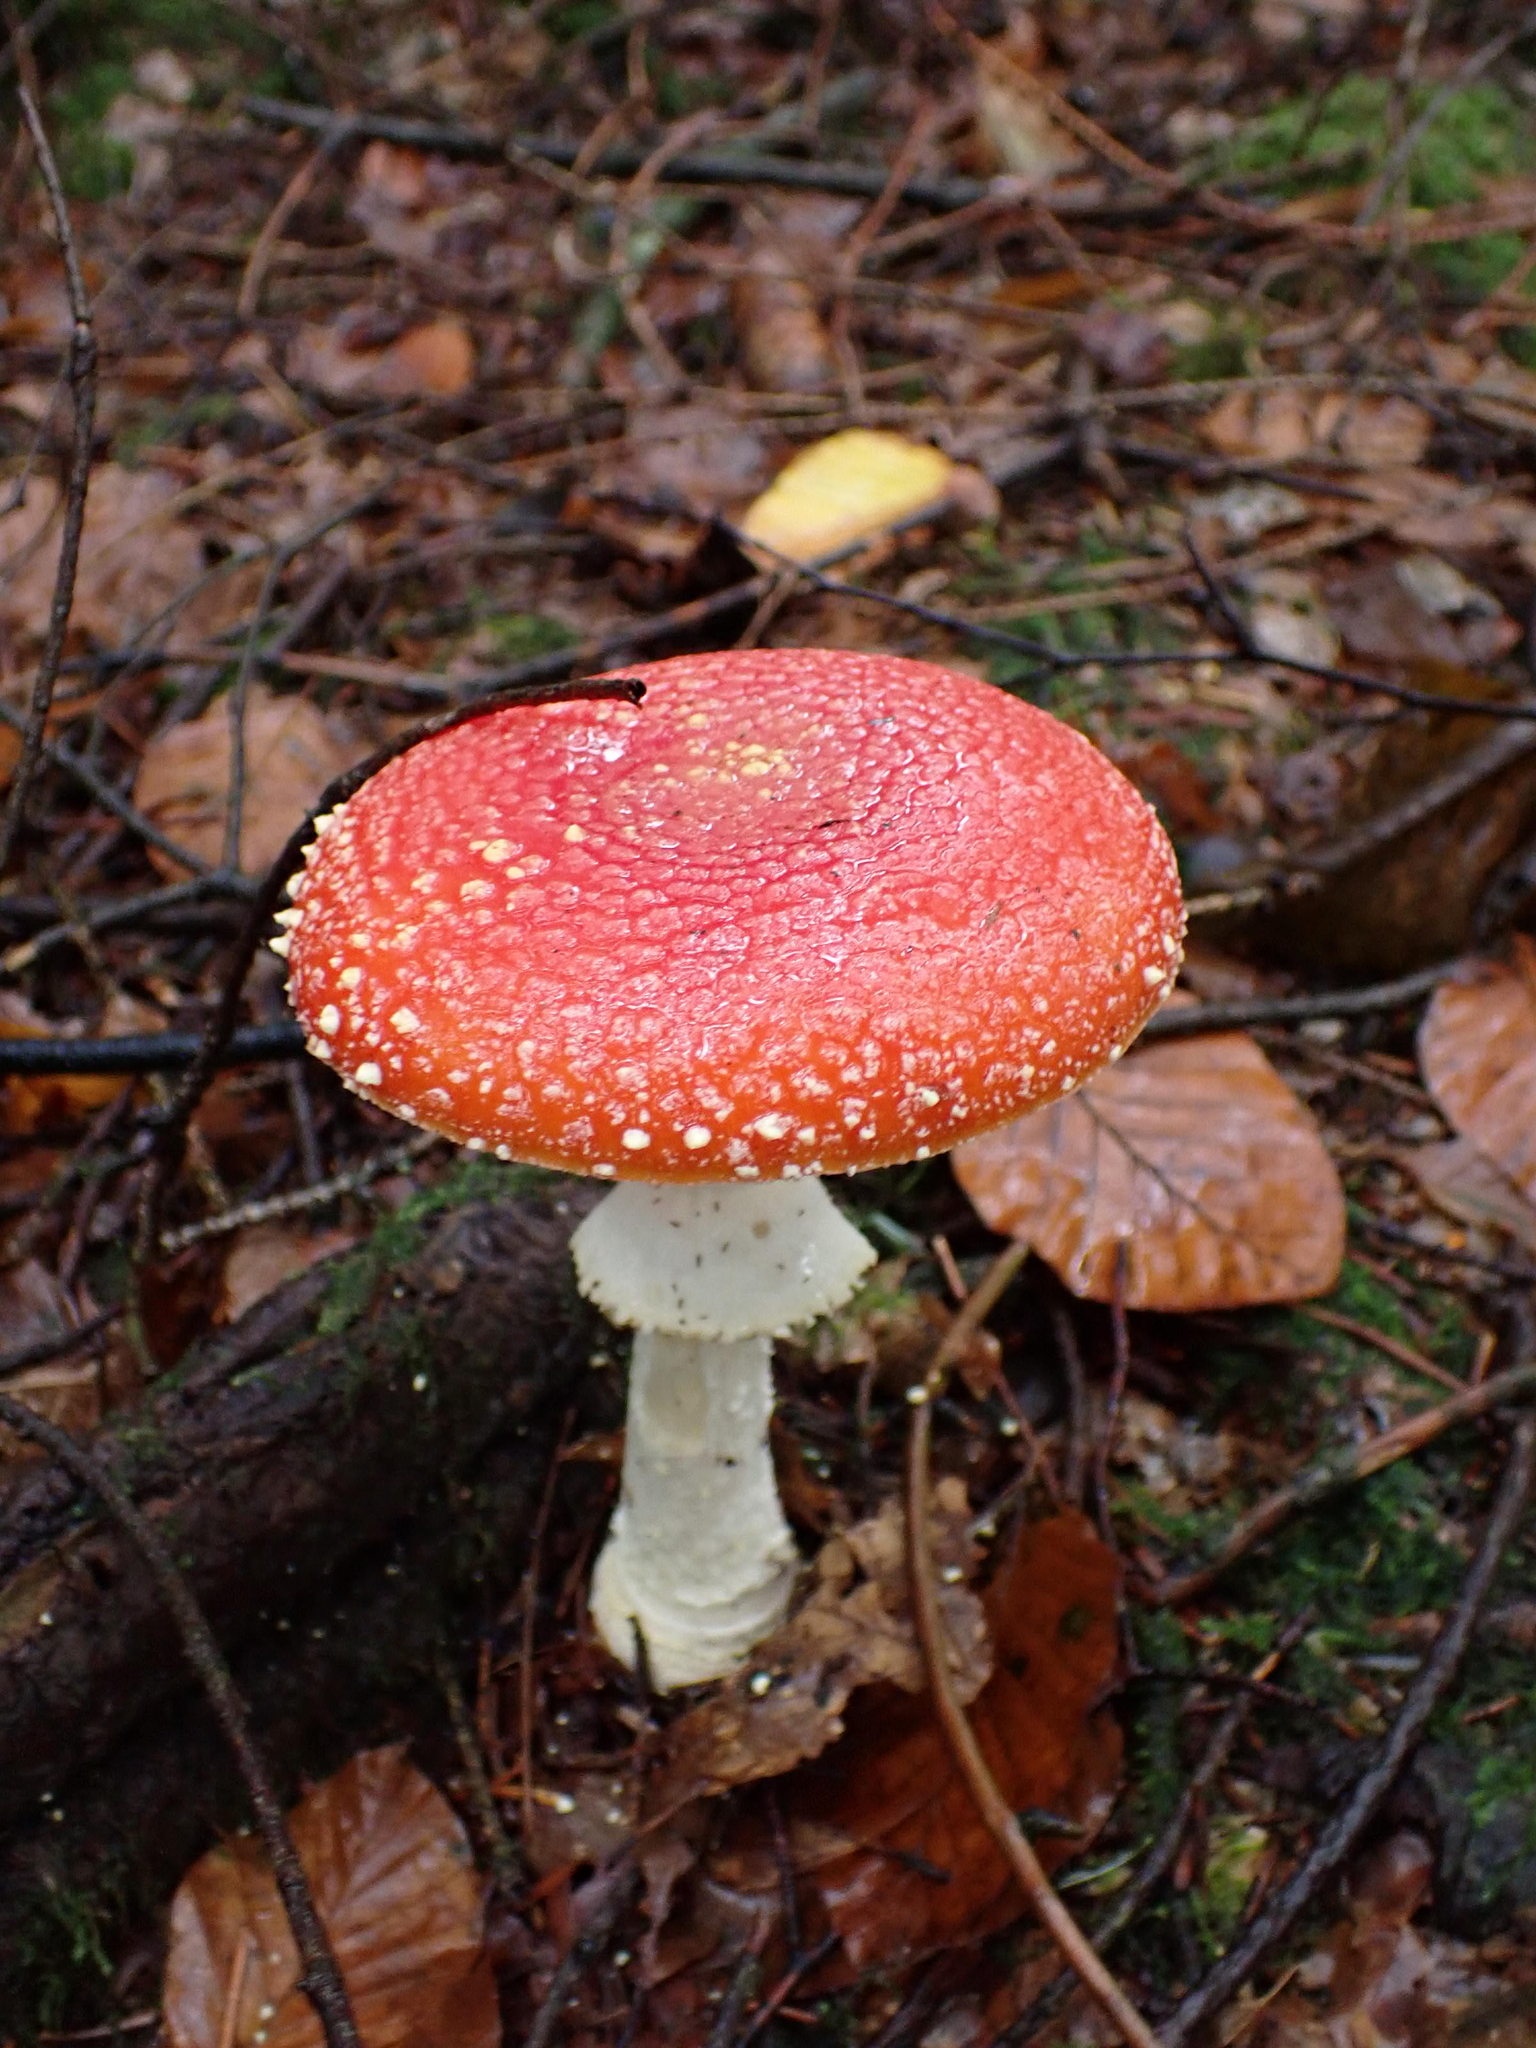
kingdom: Fungi
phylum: Basidiomycota
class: Agaricomycetes
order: Agaricales
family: Amanitaceae
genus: Amanita
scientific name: Amanita muscaria
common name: Fly agaric
